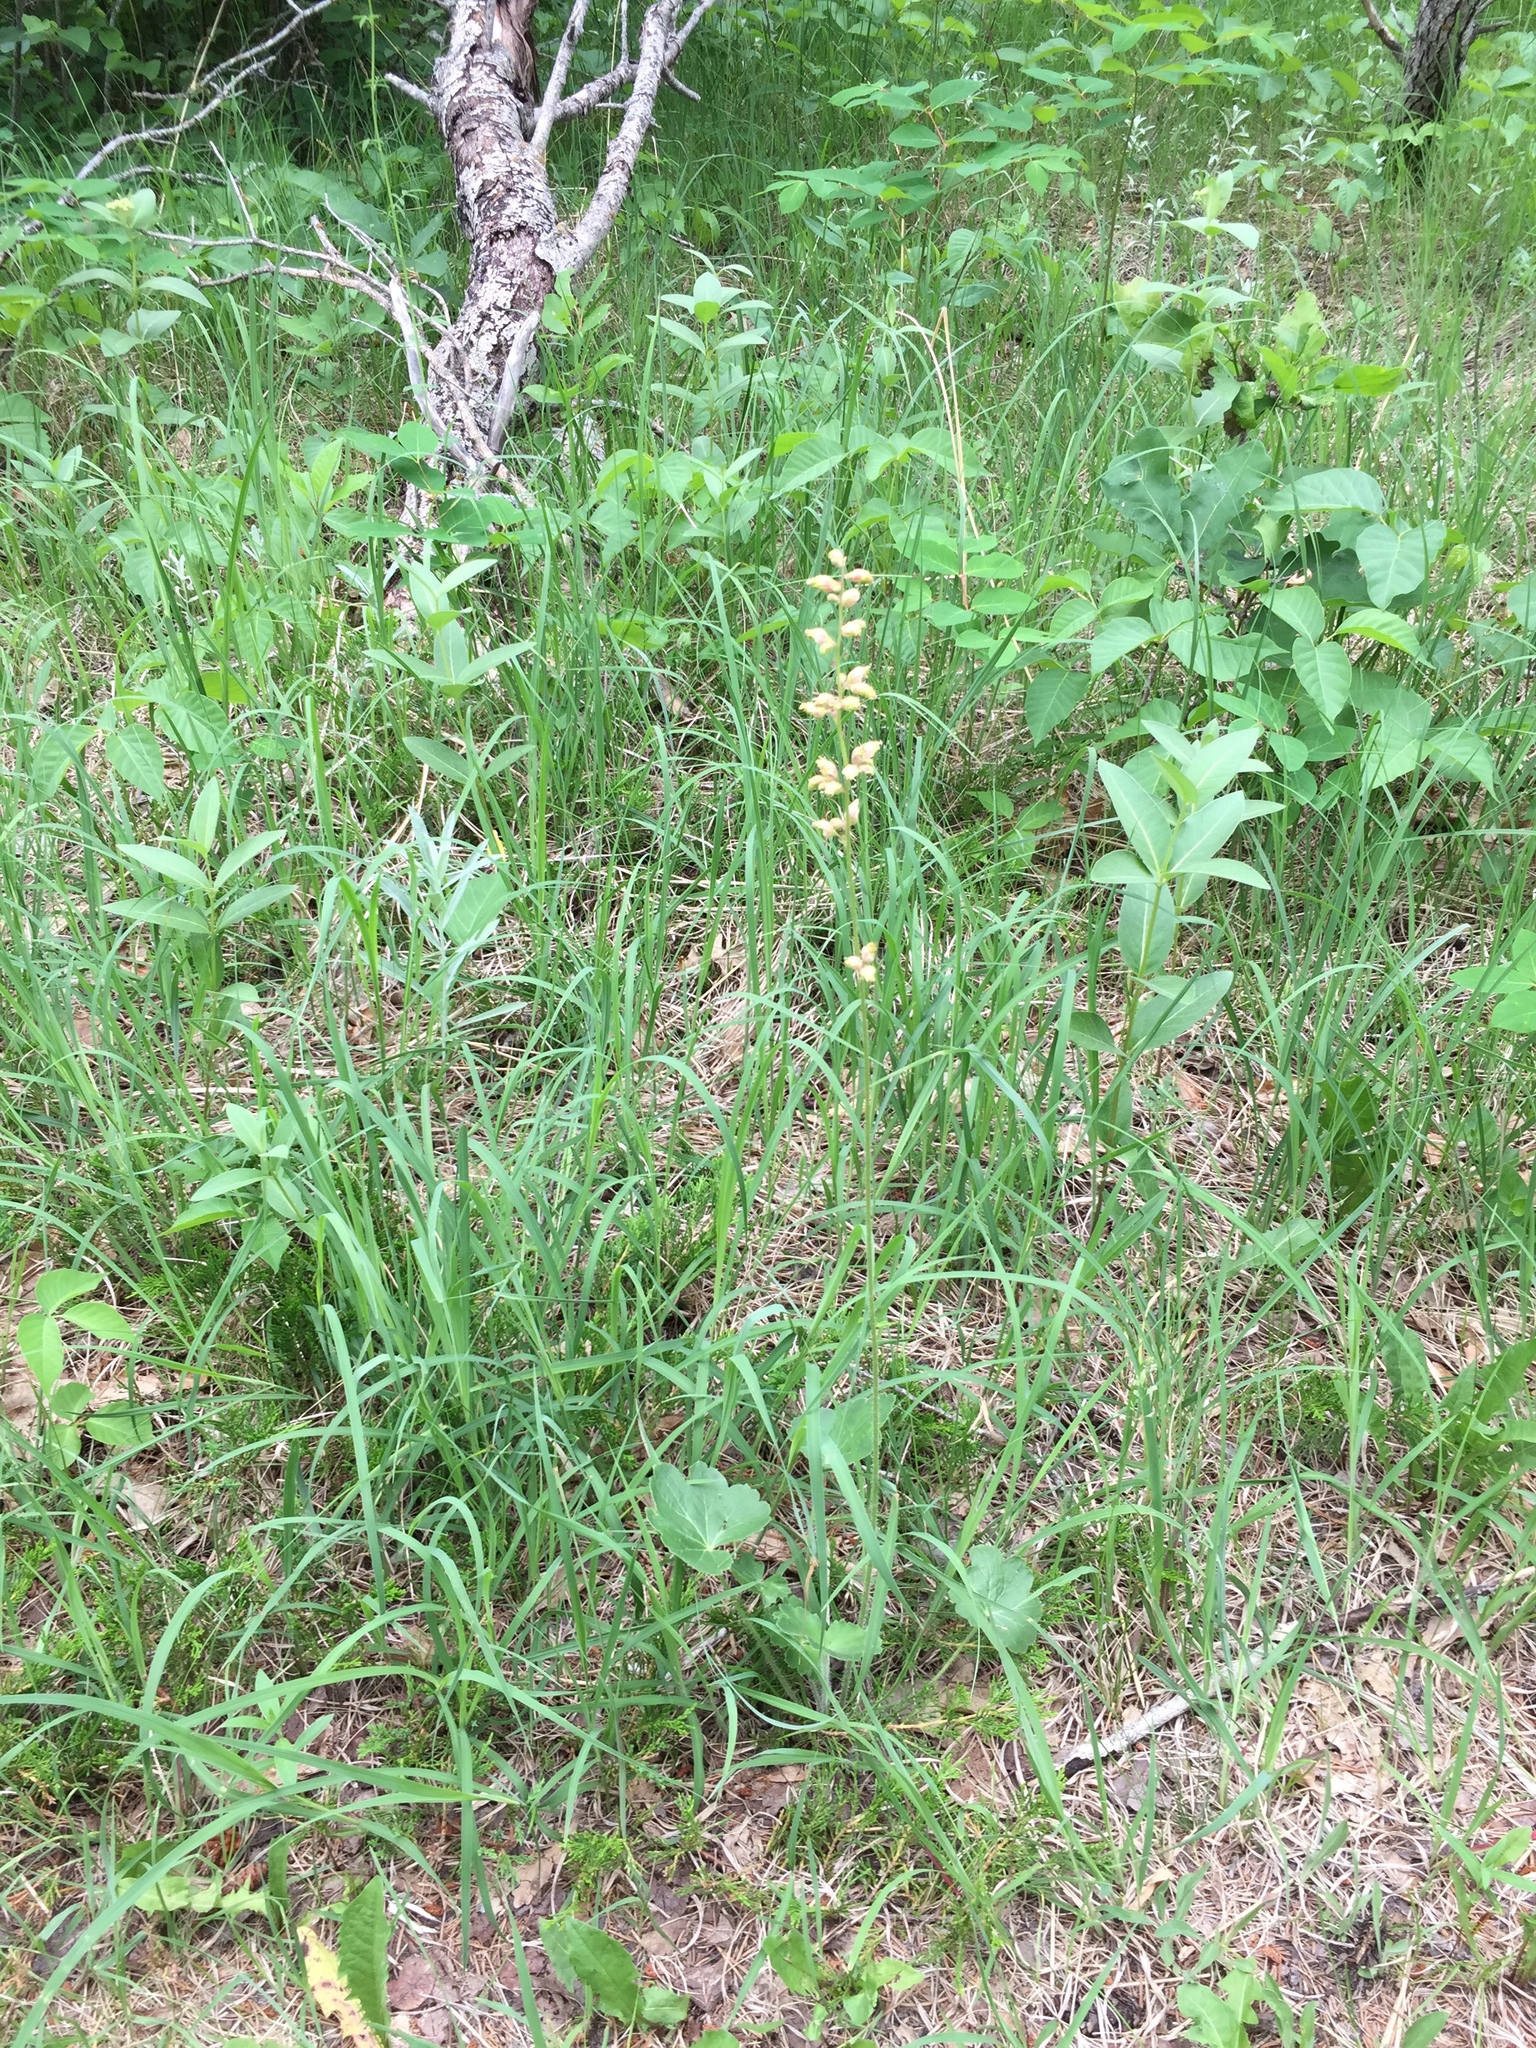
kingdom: Plantae
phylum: Tracheophyta
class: Magnoliopsida
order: Saxifragales
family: Saxifragaceae
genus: Heuchera
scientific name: Heuchera richardsonii
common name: Richardson's alumroot
